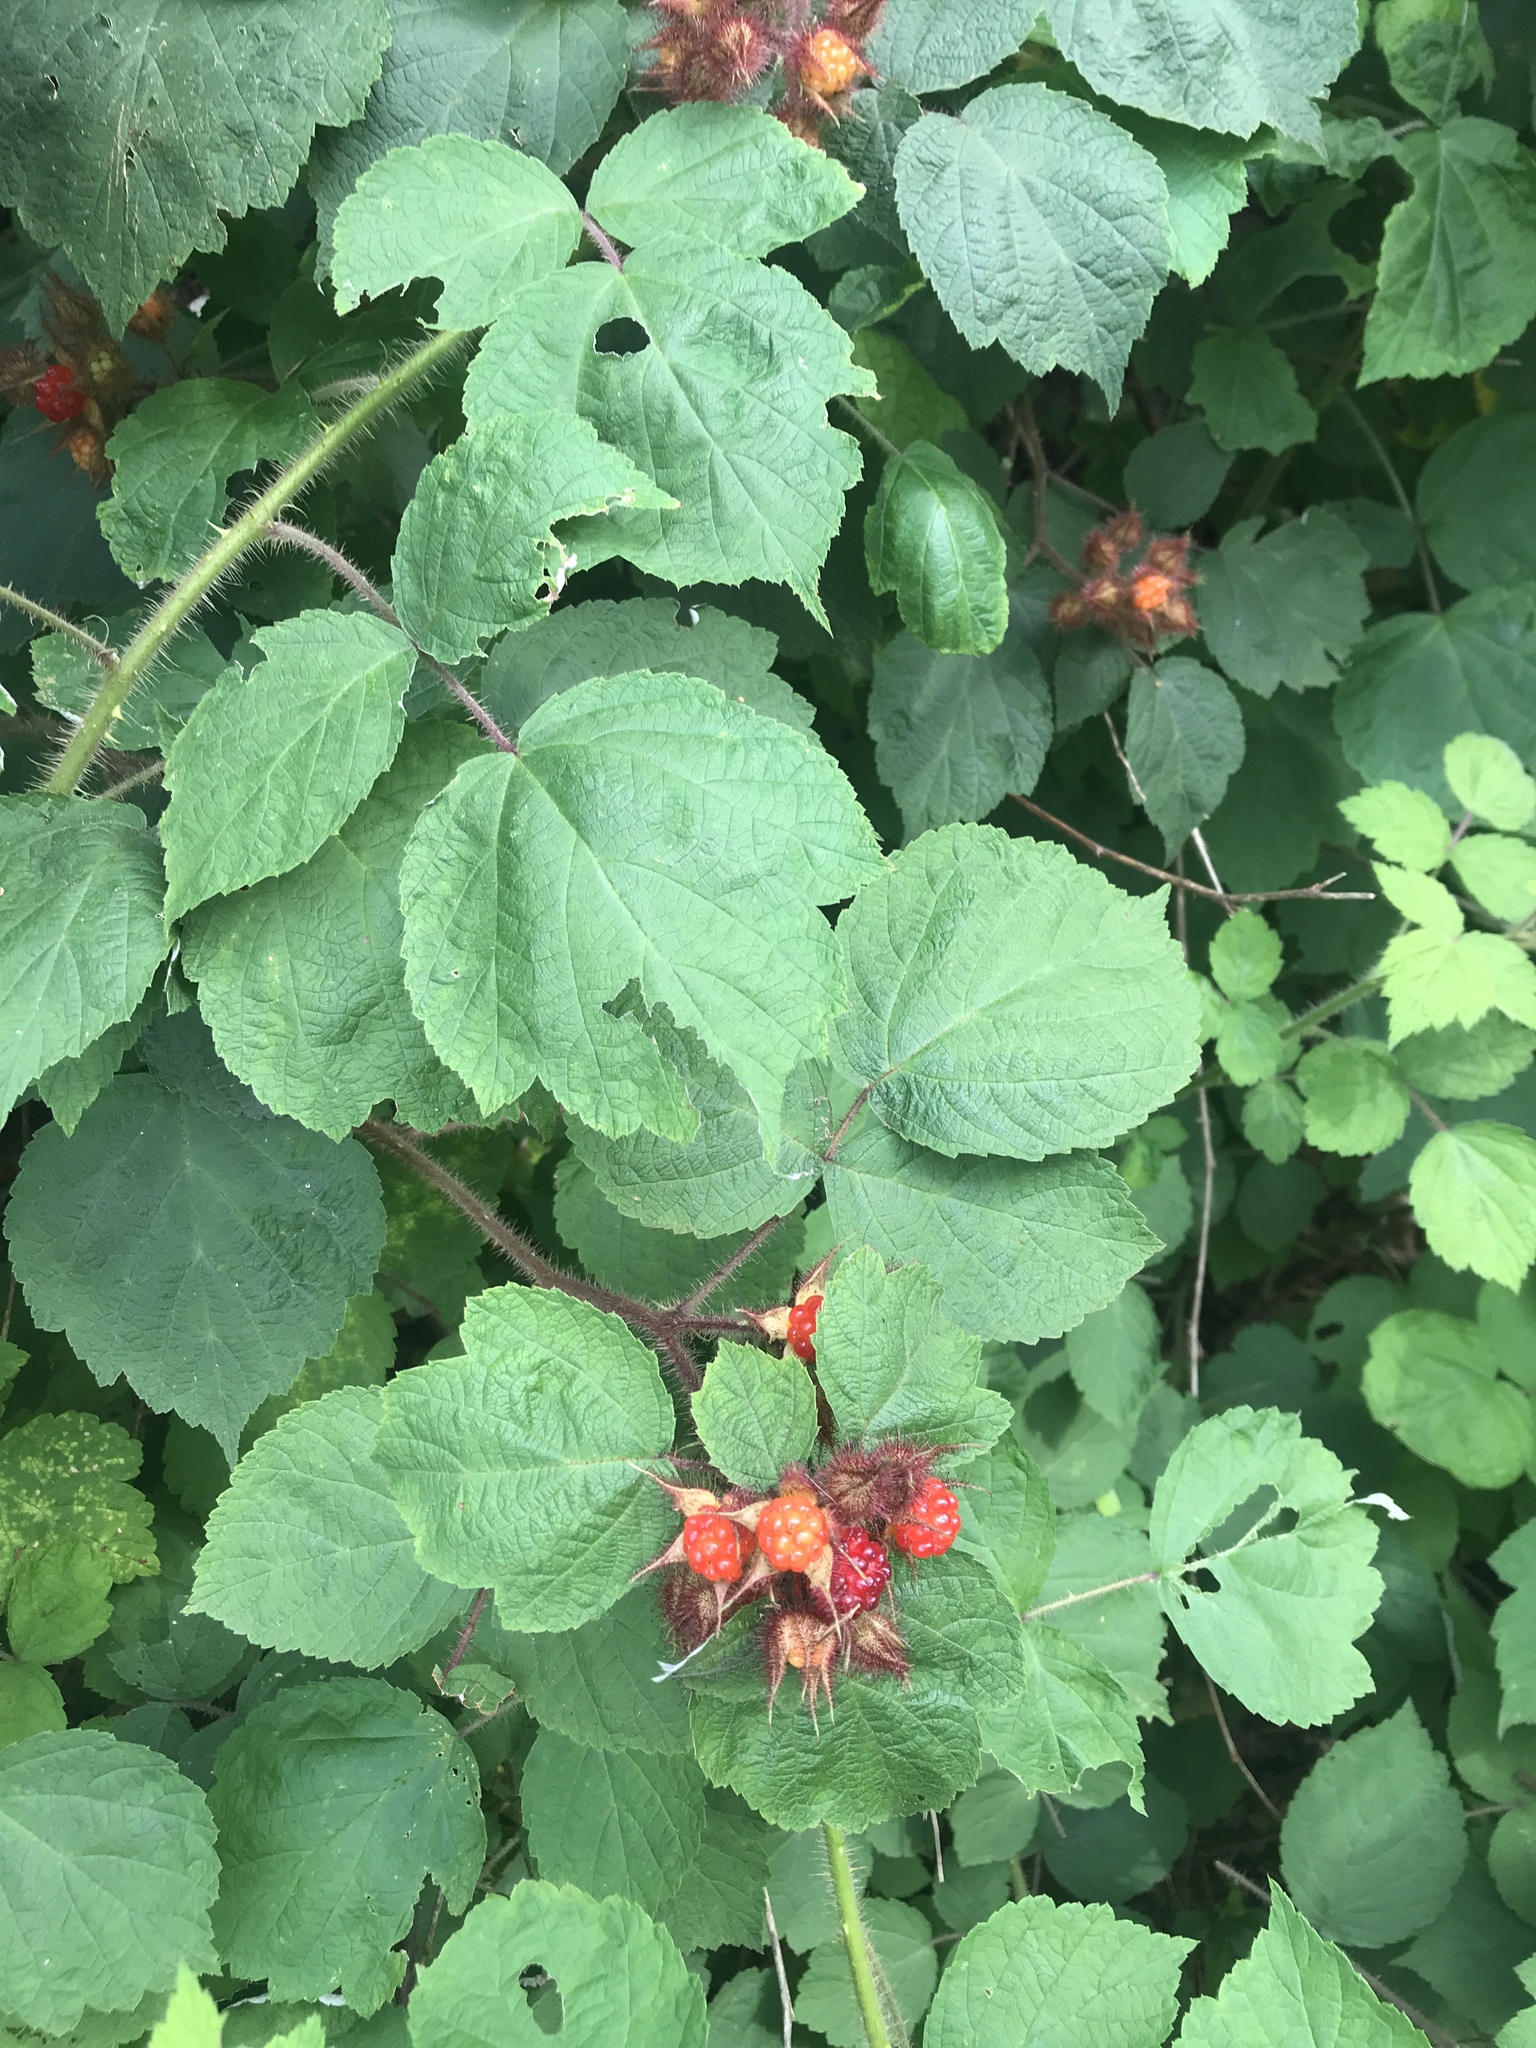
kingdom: Plantae
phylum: Tracheophyta
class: Magnoliopsida
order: Rosales
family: Rosaceae
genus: Rubus
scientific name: Rubus phoenicolasius
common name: Japanese wineberry
